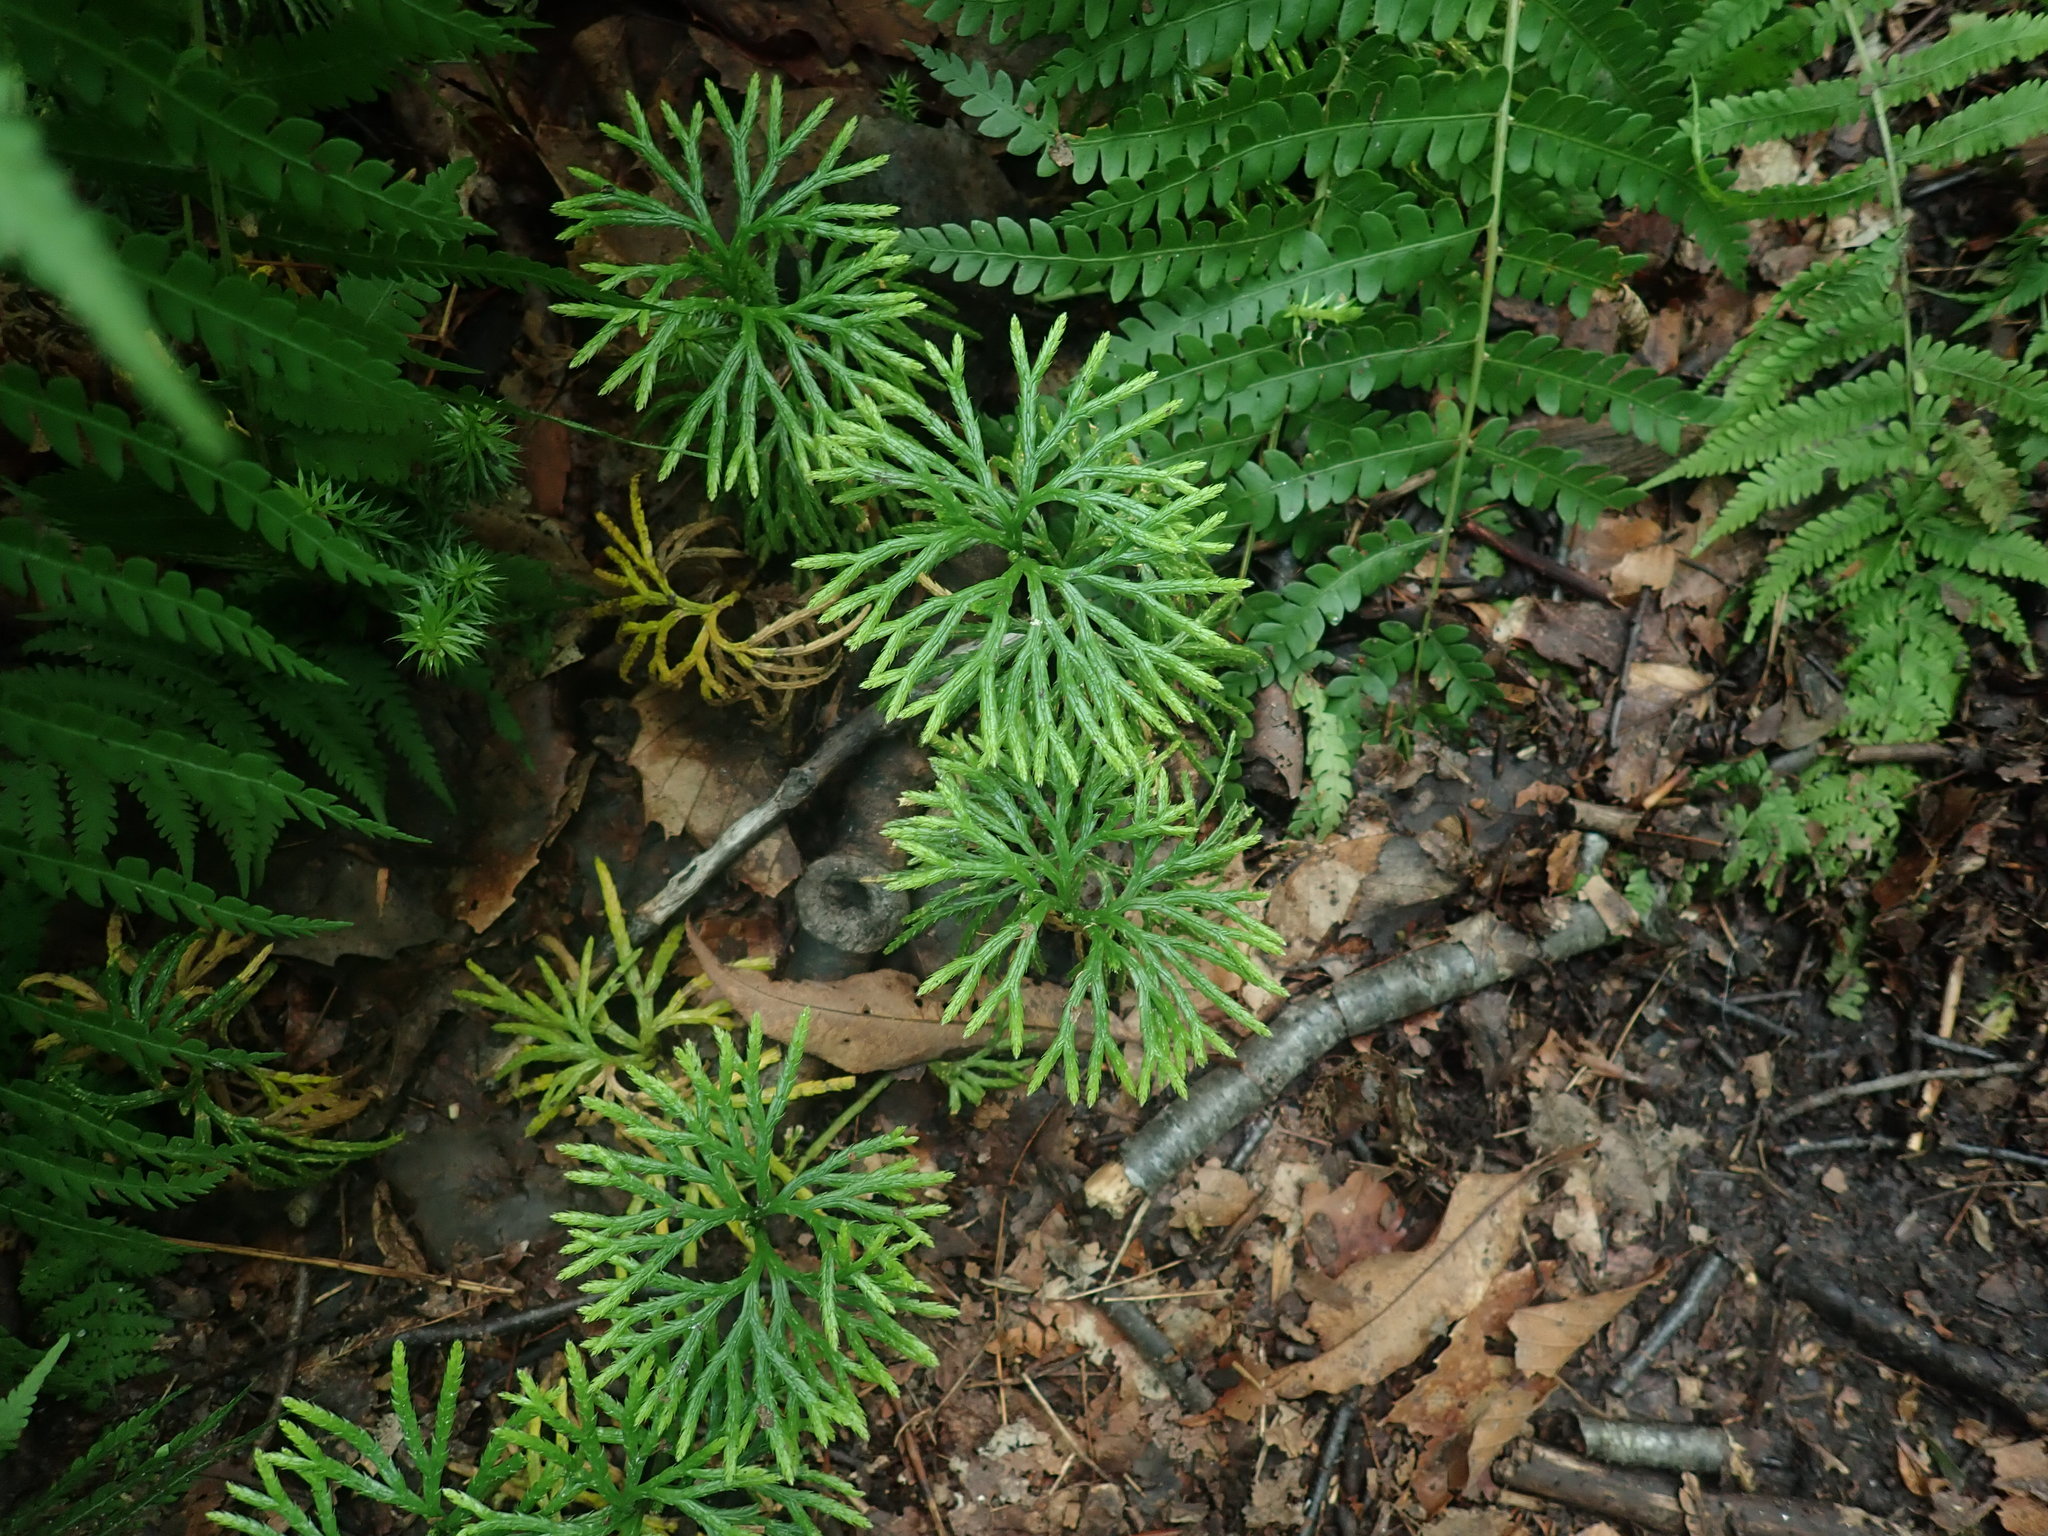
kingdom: Plantae
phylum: Tracheophyta
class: Lycopodiopsida
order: Lycopodiales
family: Lycopodiaceae
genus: Diphasiastrum
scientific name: Diphasiastrum digitatum
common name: Southern running-pine
